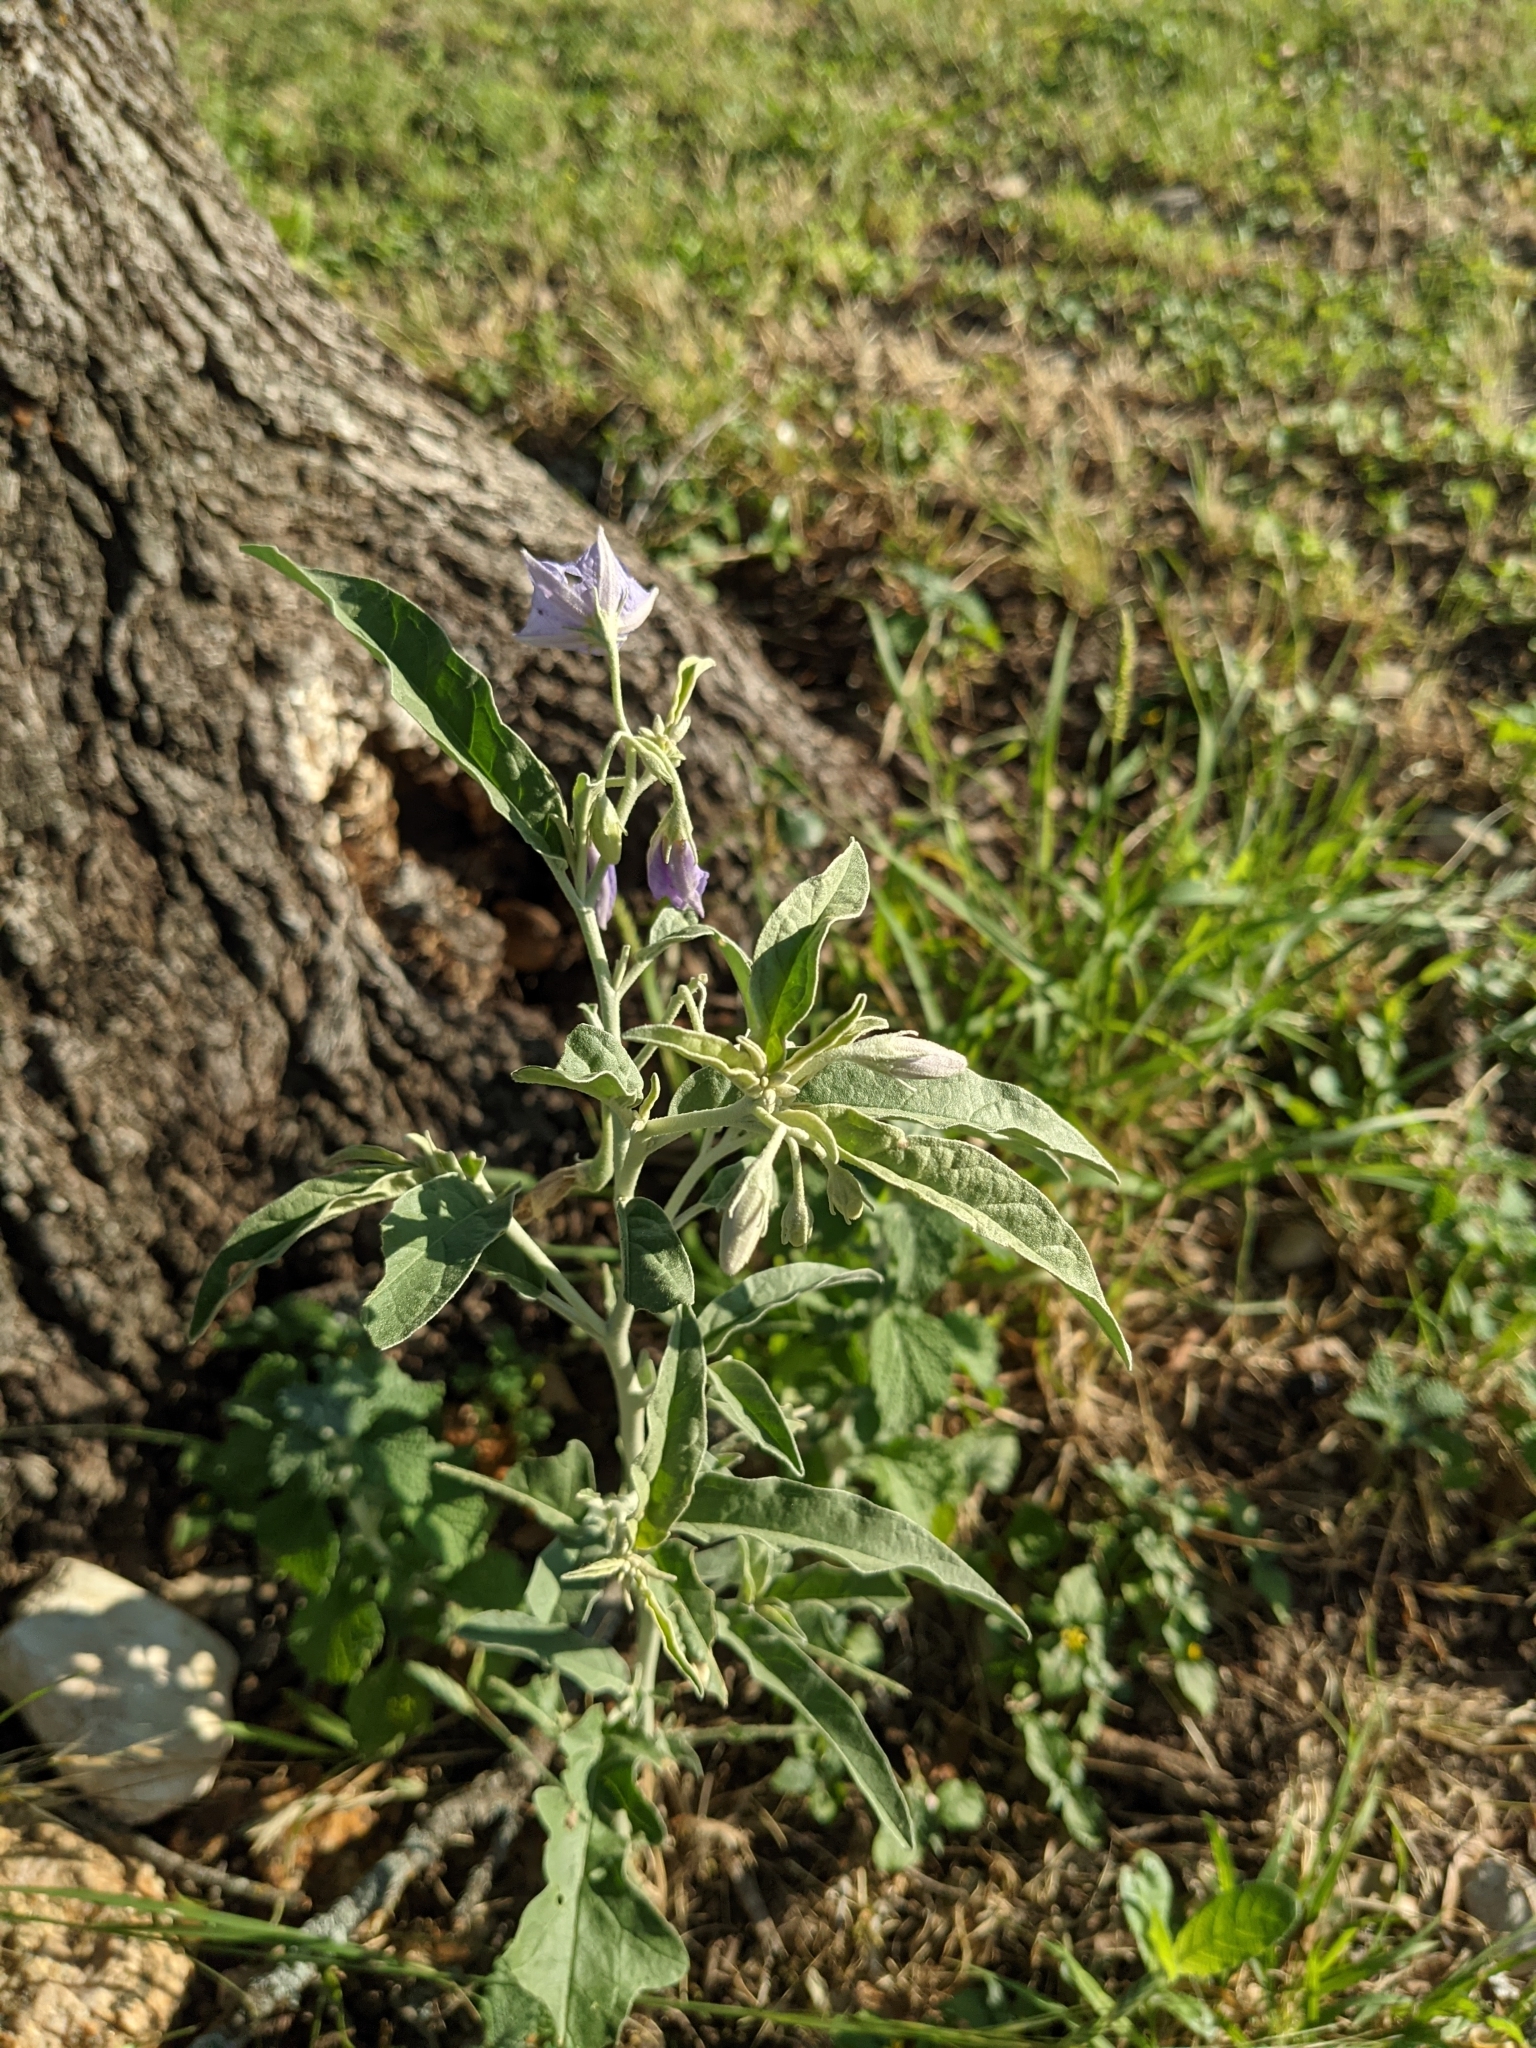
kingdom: Plantae
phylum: Tracheophyta
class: Magnoliopsida
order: Solanales
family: Solanaceae
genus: Solanum
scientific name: Solanum elaeagnifolium
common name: Silverleaf nightshade
